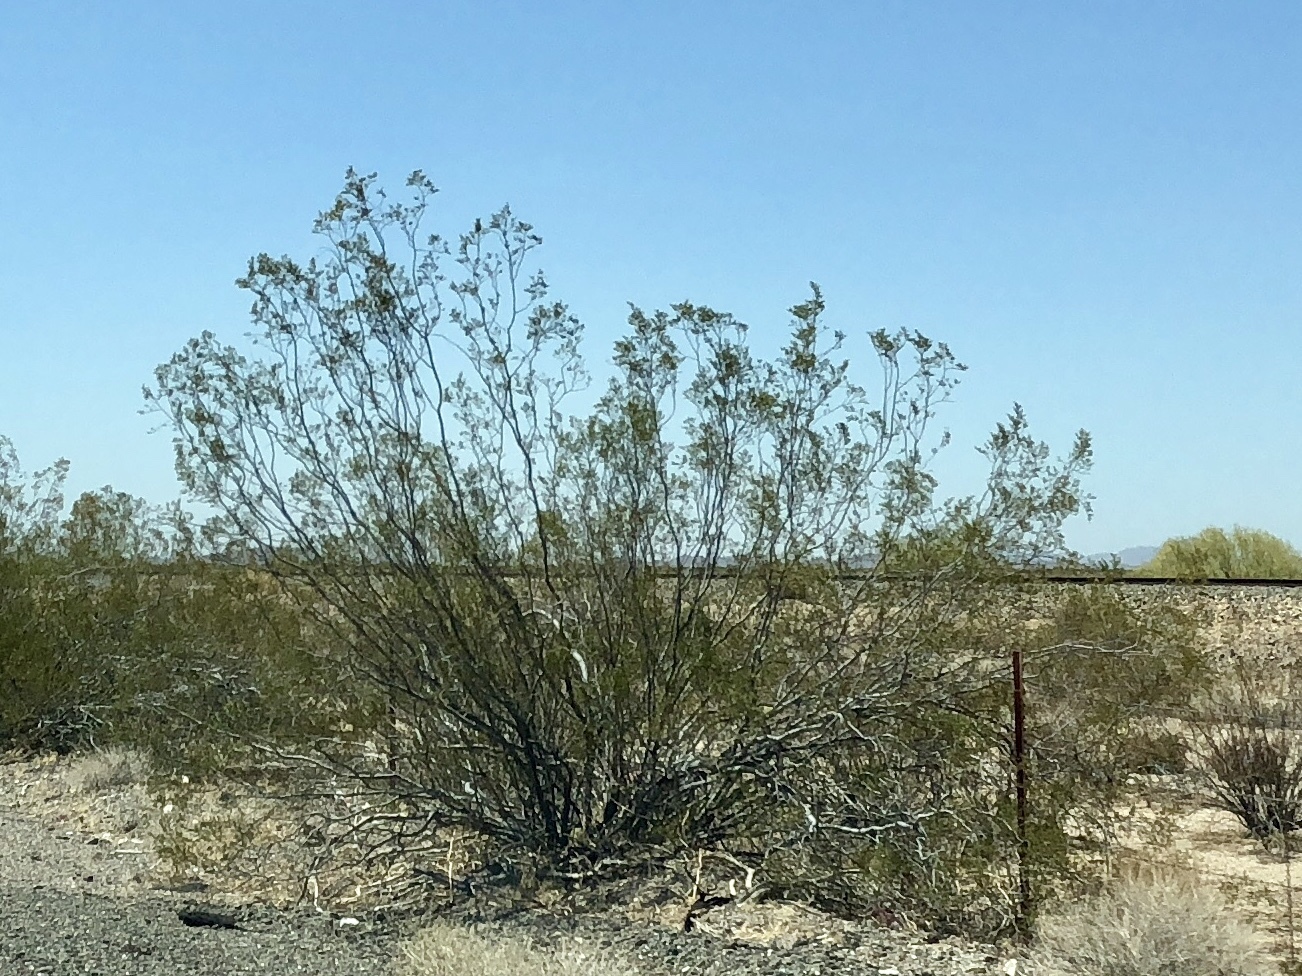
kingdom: Plantae
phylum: Tracheophyta
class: Magnoliopsida
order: Zygophyllales
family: Zygophyllaceae
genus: Larrea
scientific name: Larrea tridentata
